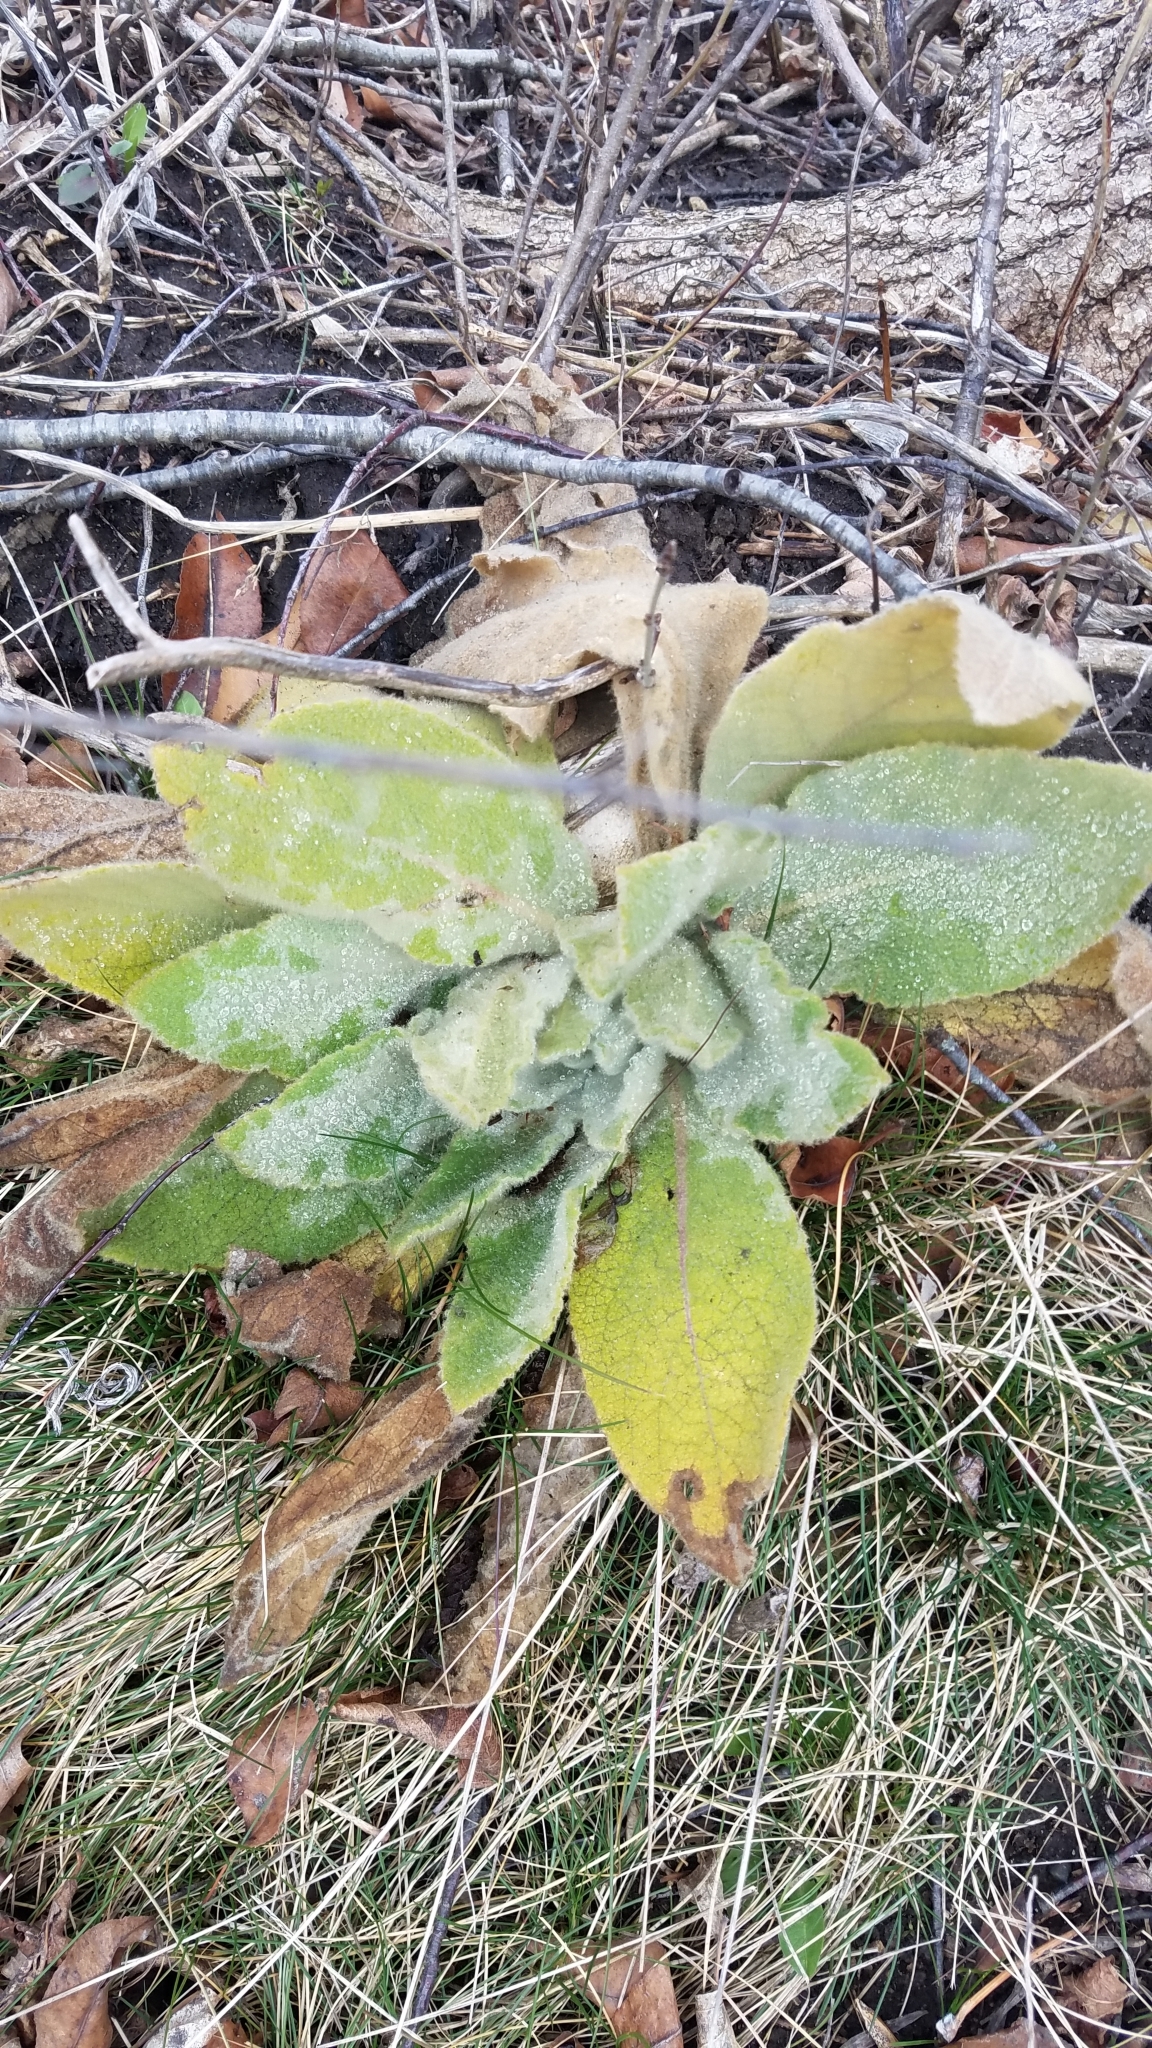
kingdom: Plantae
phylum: Tracheophyta
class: Magnoliopsida
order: Lamiales
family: Scrophulariaceae
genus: Verbascum
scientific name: Verbascum thapsus
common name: Common mullein
